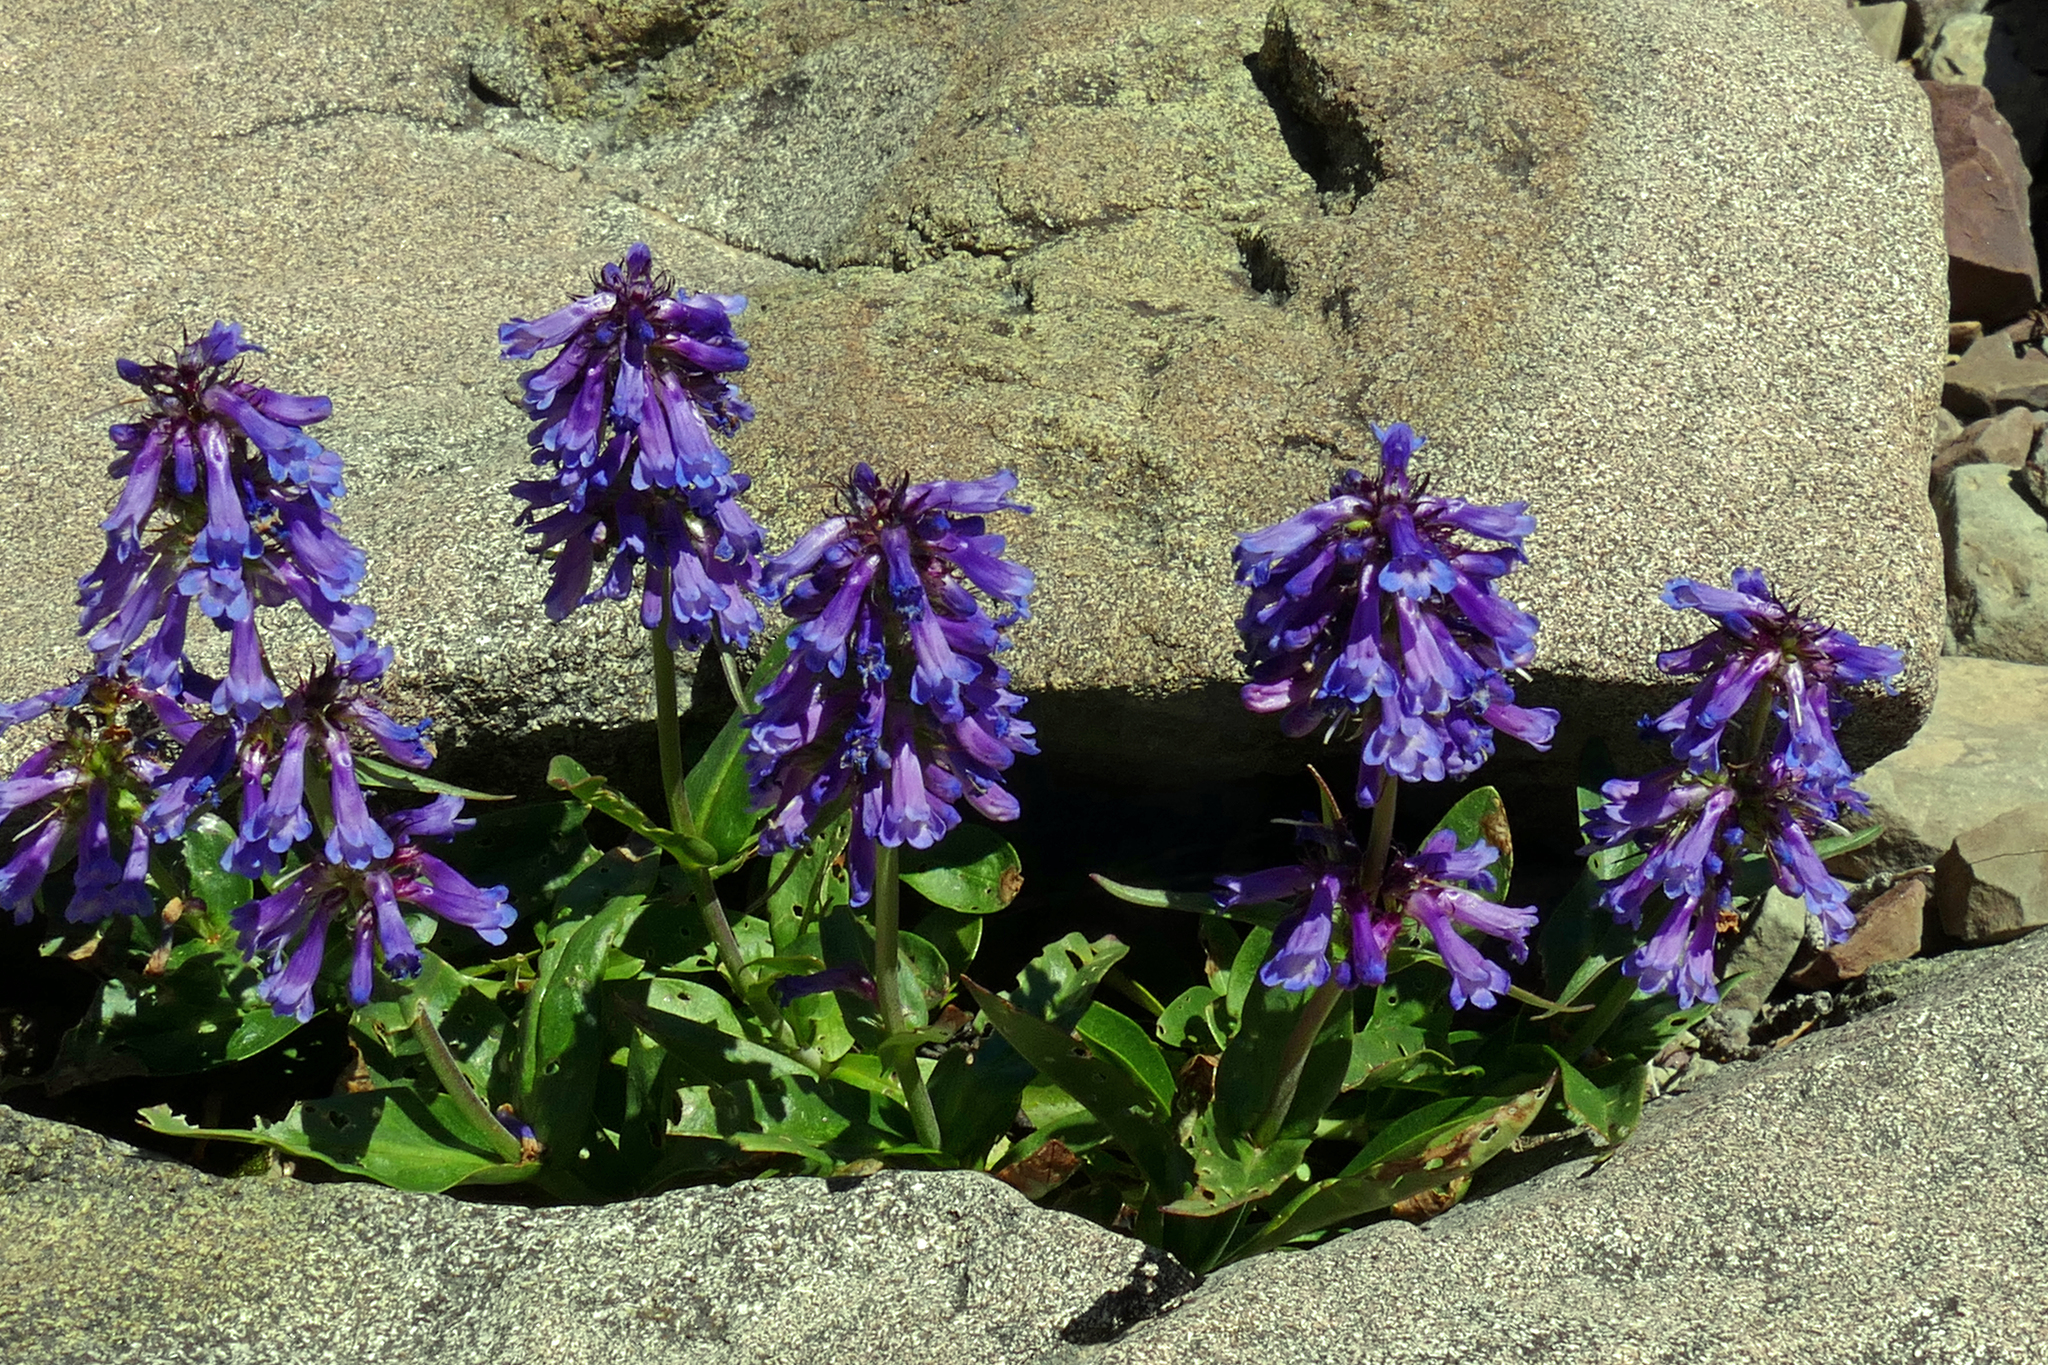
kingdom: Plantae
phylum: Tracheophyta
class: Magnoliopsida
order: Lamiales
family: Plantaginaceae
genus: Penstemon
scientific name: Penstemon procerus
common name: Small-flower penstemon
